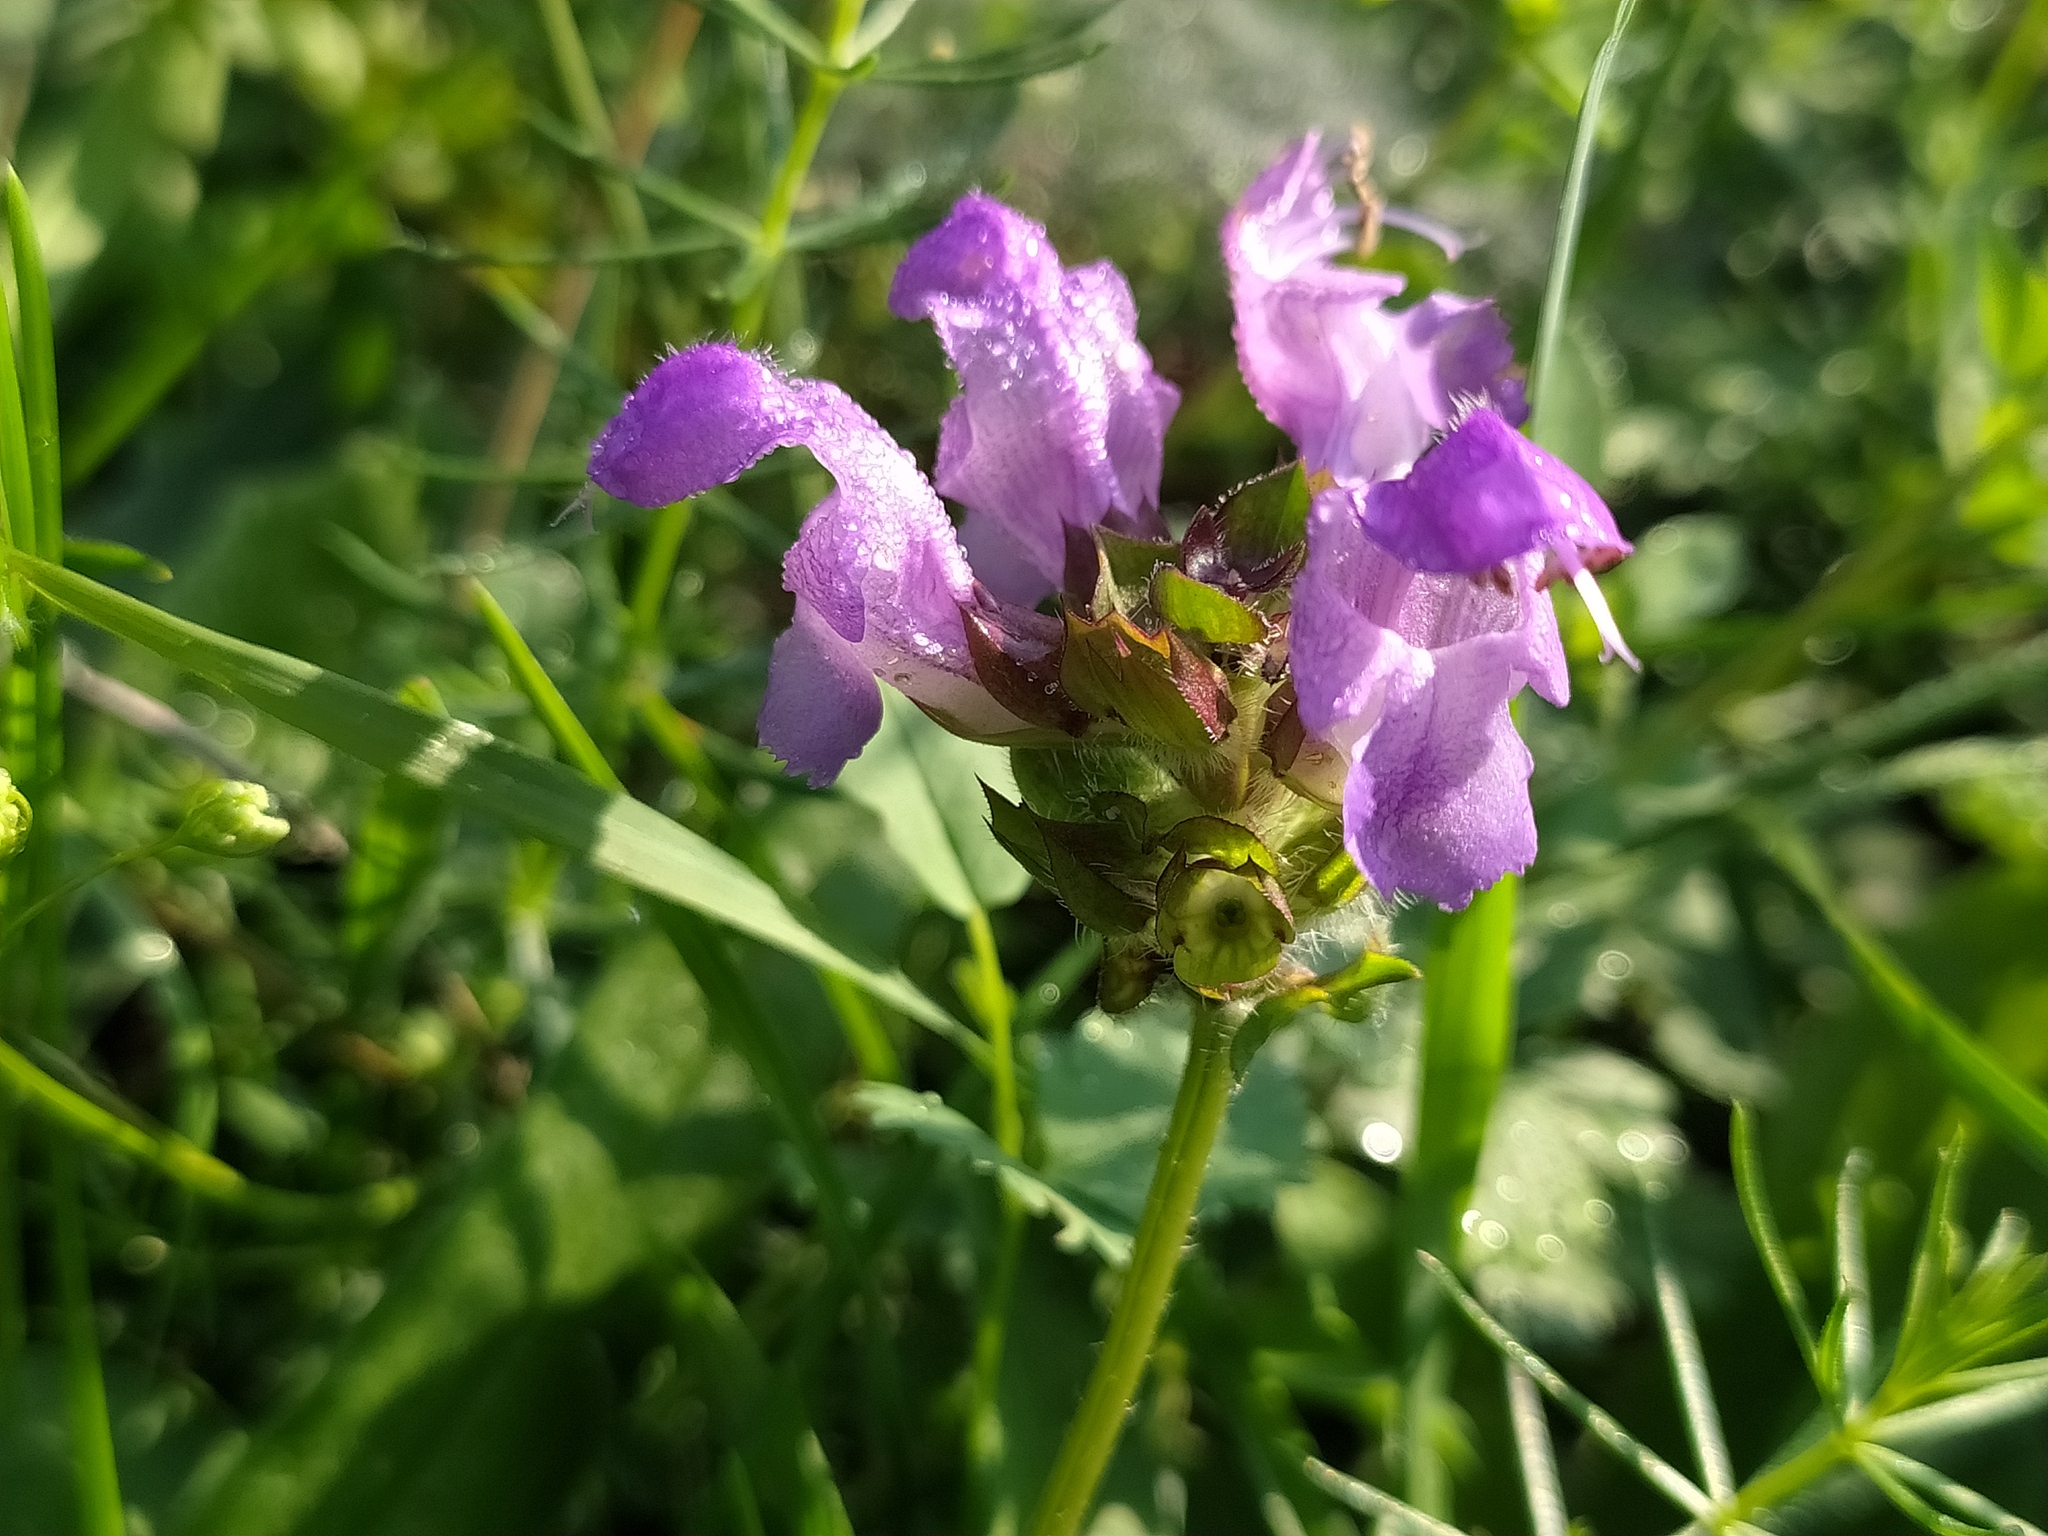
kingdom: Plantae
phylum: Tracheophyta
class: Magnoliopsida
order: Lamiales
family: Lamiaceae
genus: Prunella
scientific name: Prunella grandiflora
